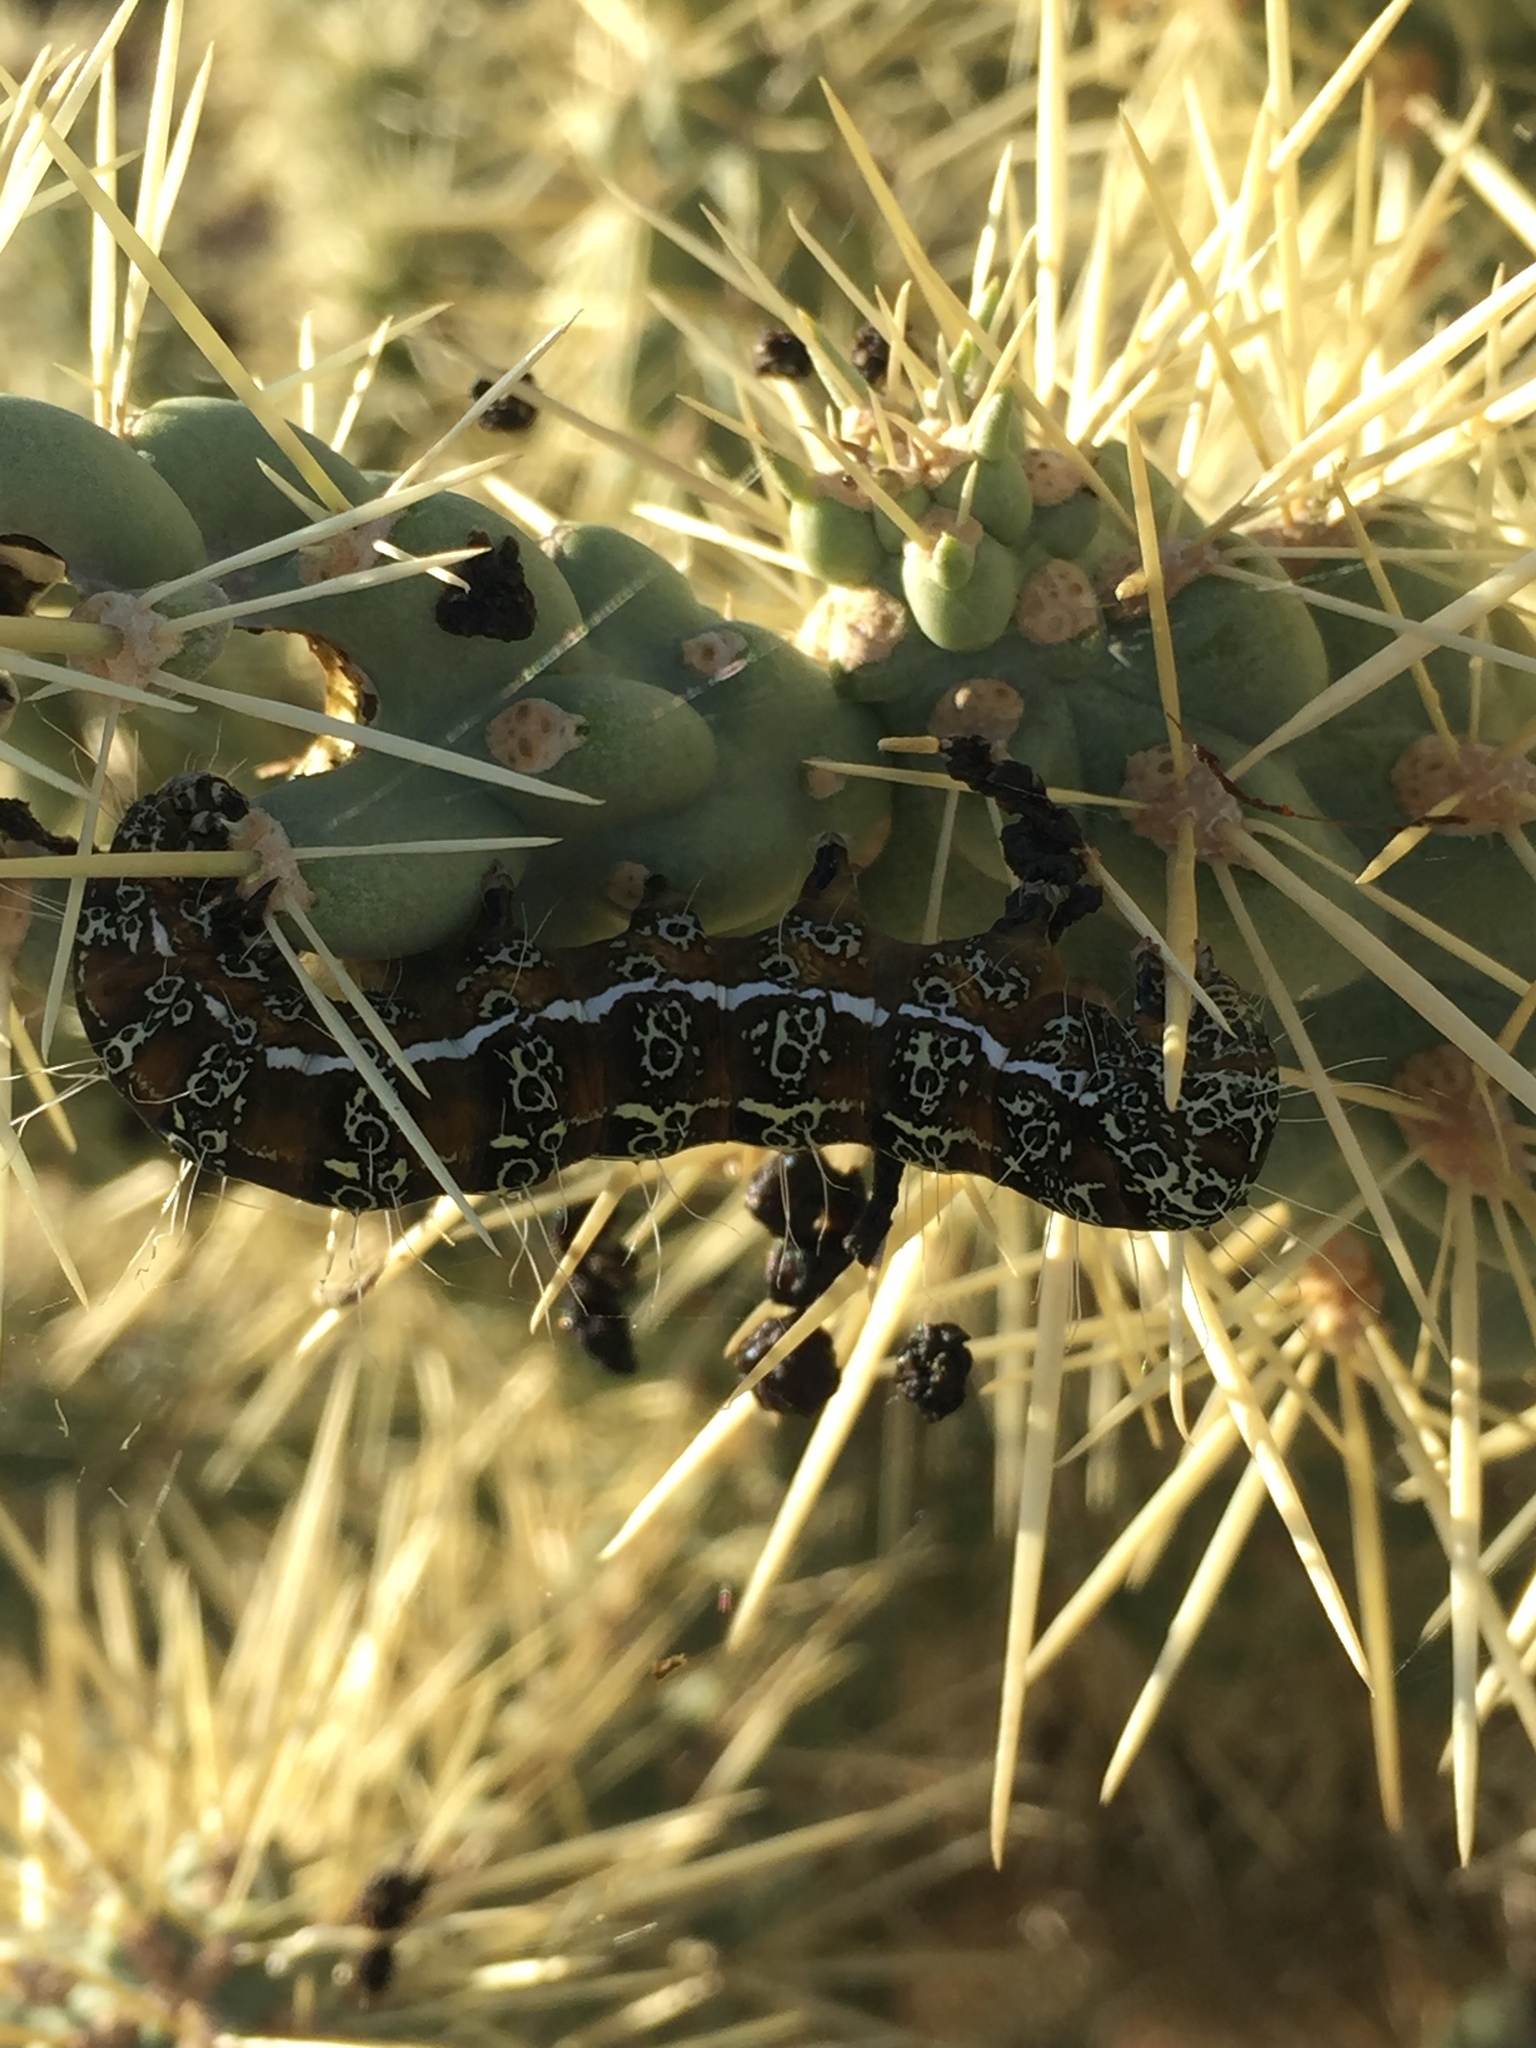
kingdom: Animalia
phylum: Arthropoda
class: Insecta
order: Lepidoptera
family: Noctuidae
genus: Euscirrhopterus
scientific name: Euscirrhopterus cosyra
